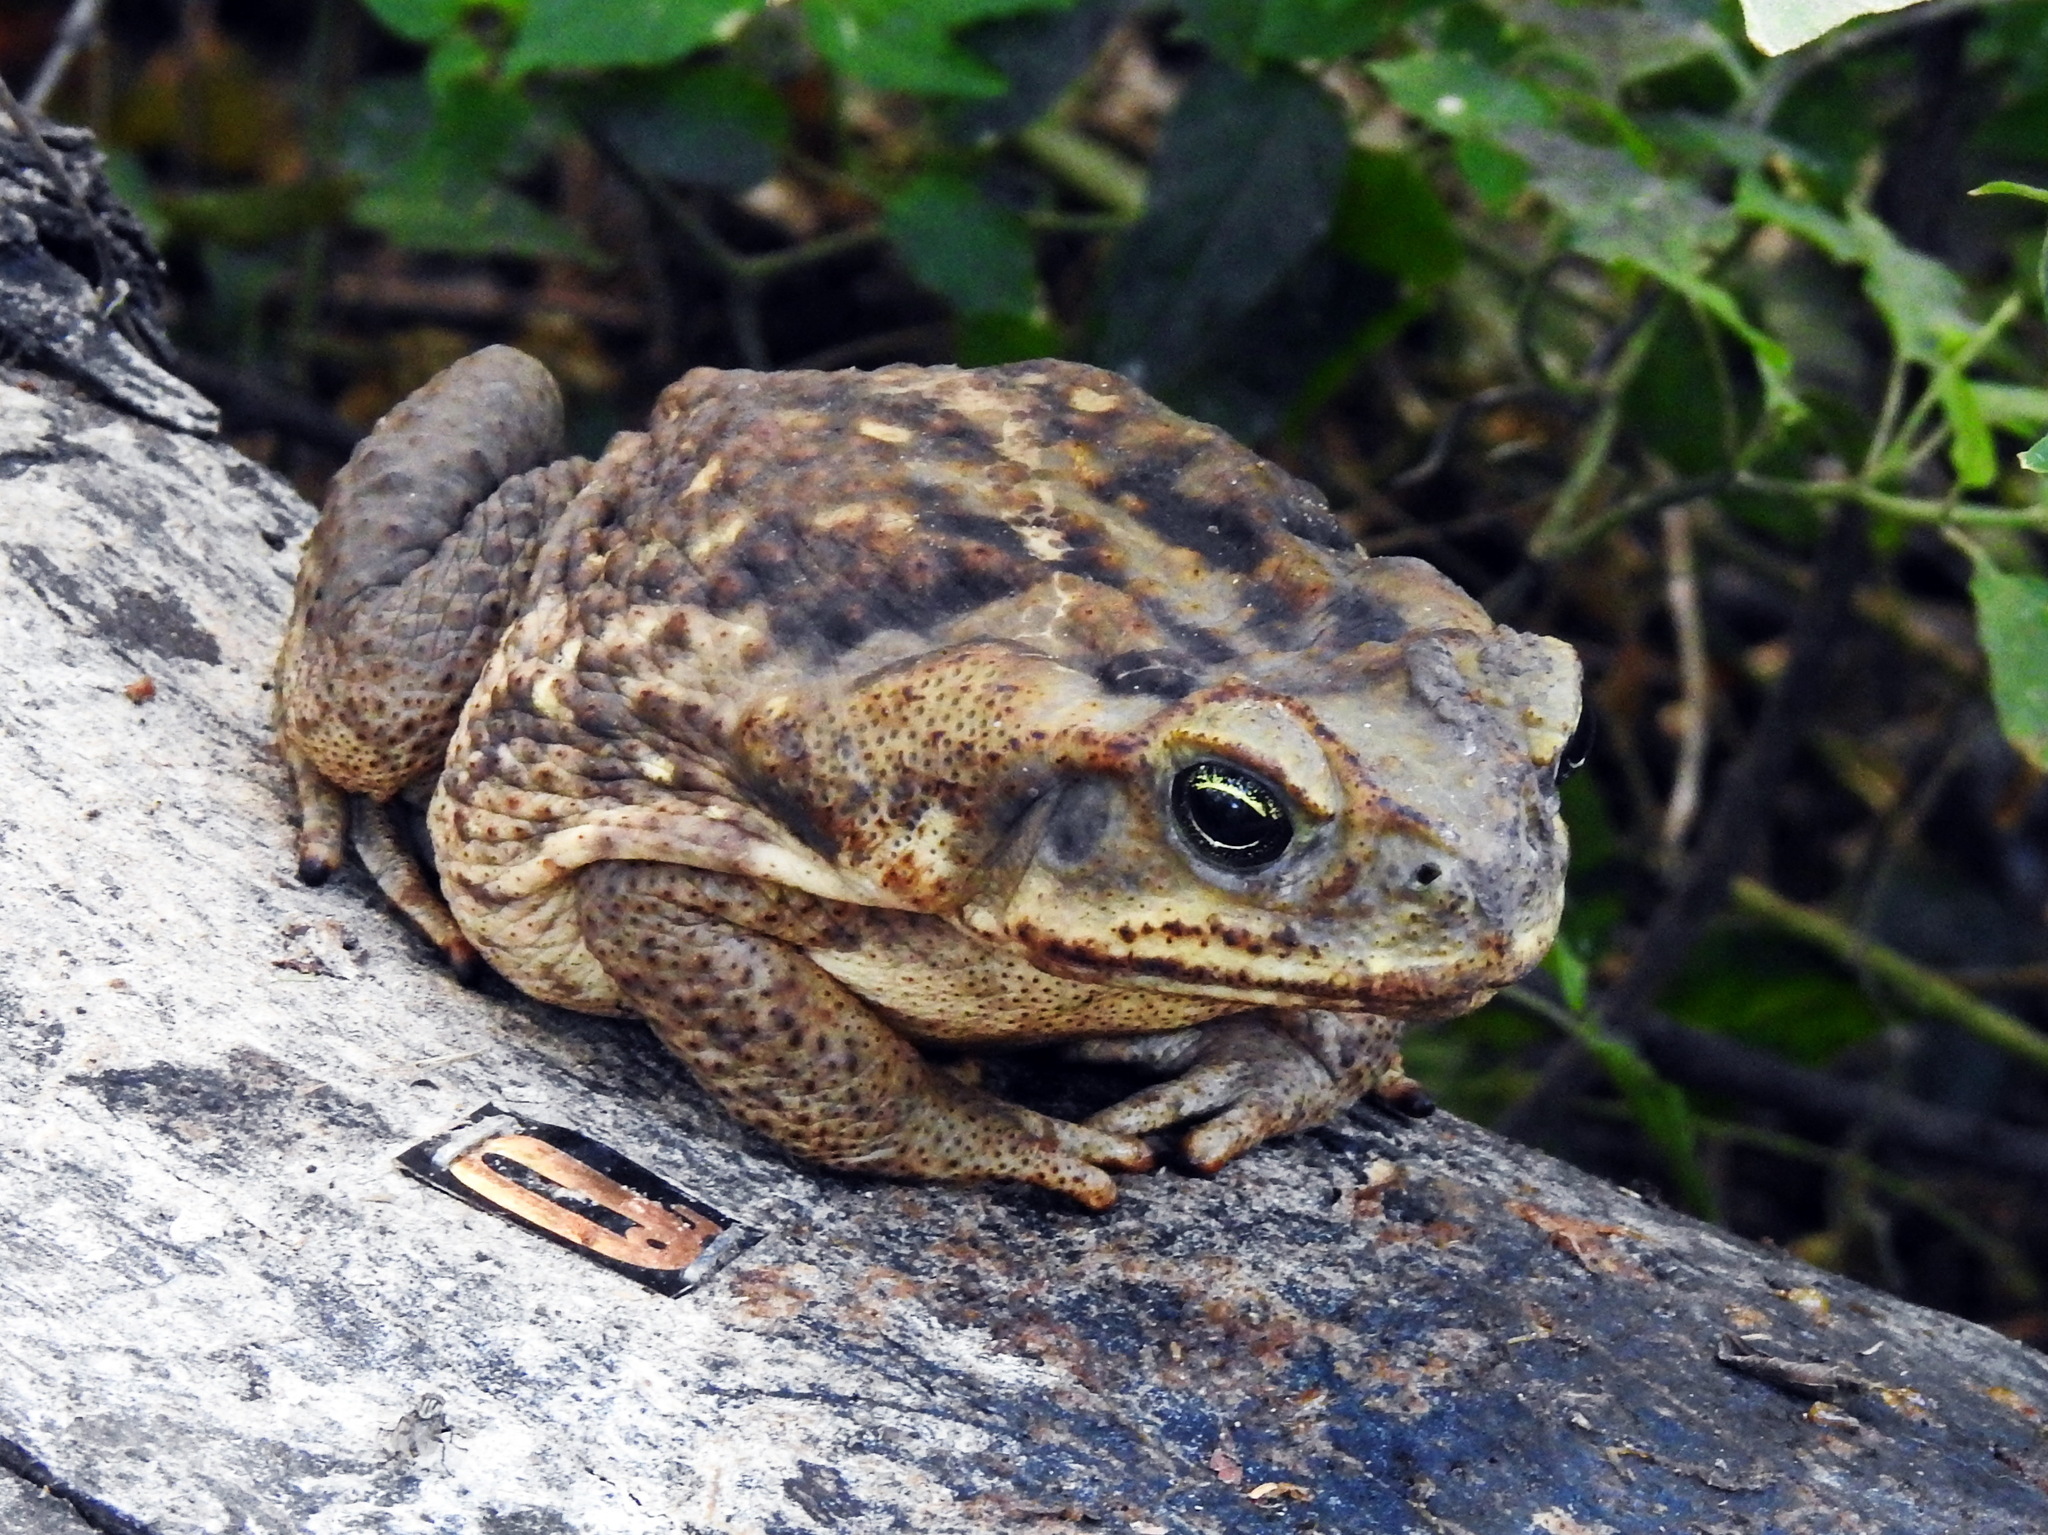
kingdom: Animalia
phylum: Chordata
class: Amphibia
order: Anura
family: Bufonidae
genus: Rhinella
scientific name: Rhinella horribilis
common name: Mesoamerican cane toad
